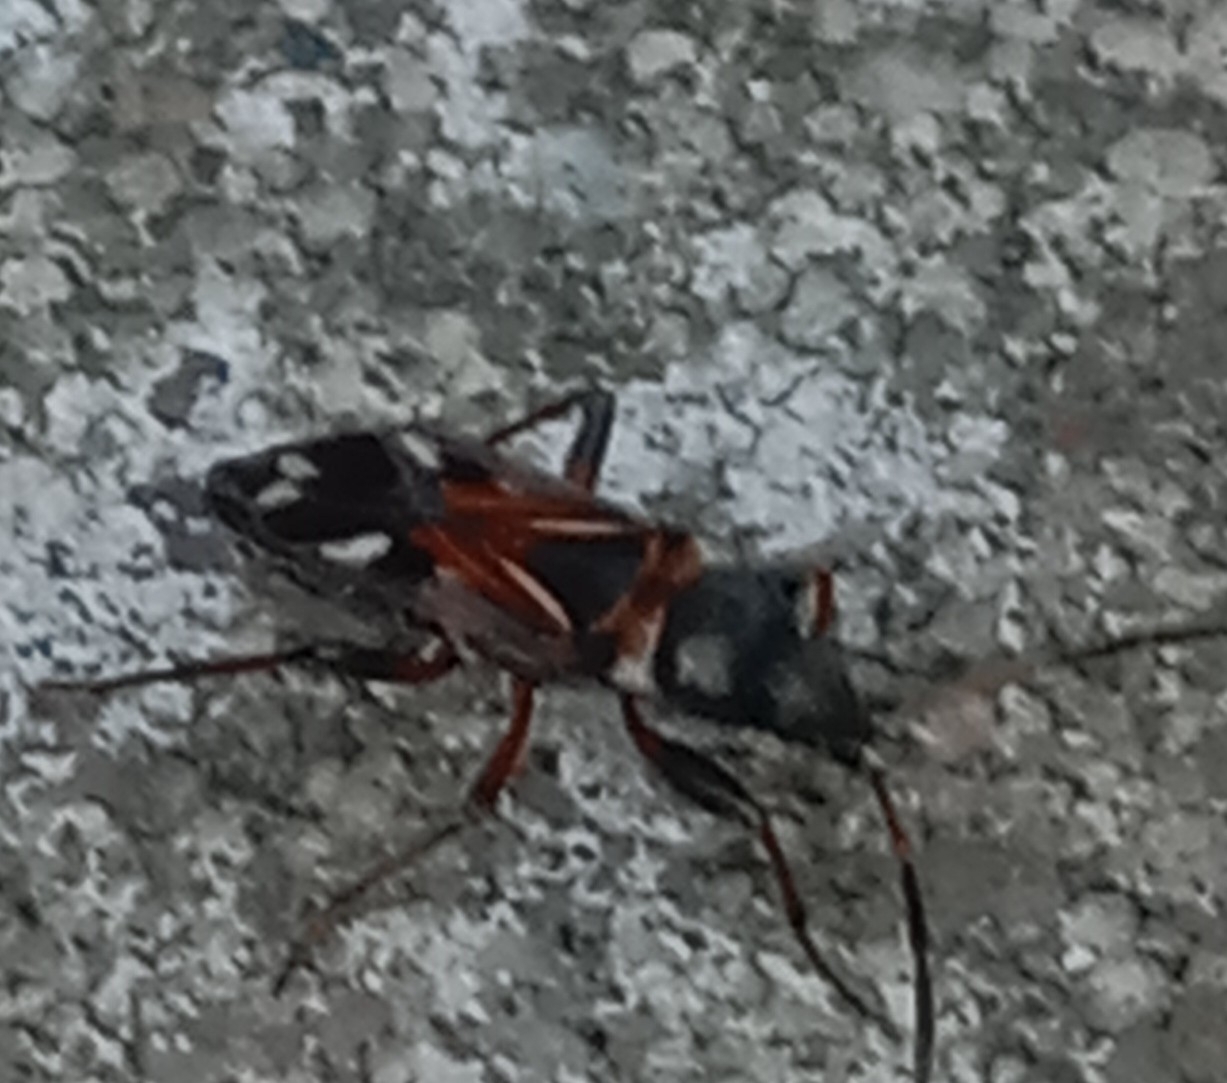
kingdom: Animalia
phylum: Arthropoda
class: Insecta
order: Hemiptera
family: Rhyparochromidae
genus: Raglius
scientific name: Raglius alboacuminatus
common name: Dirt-colored seed bug
